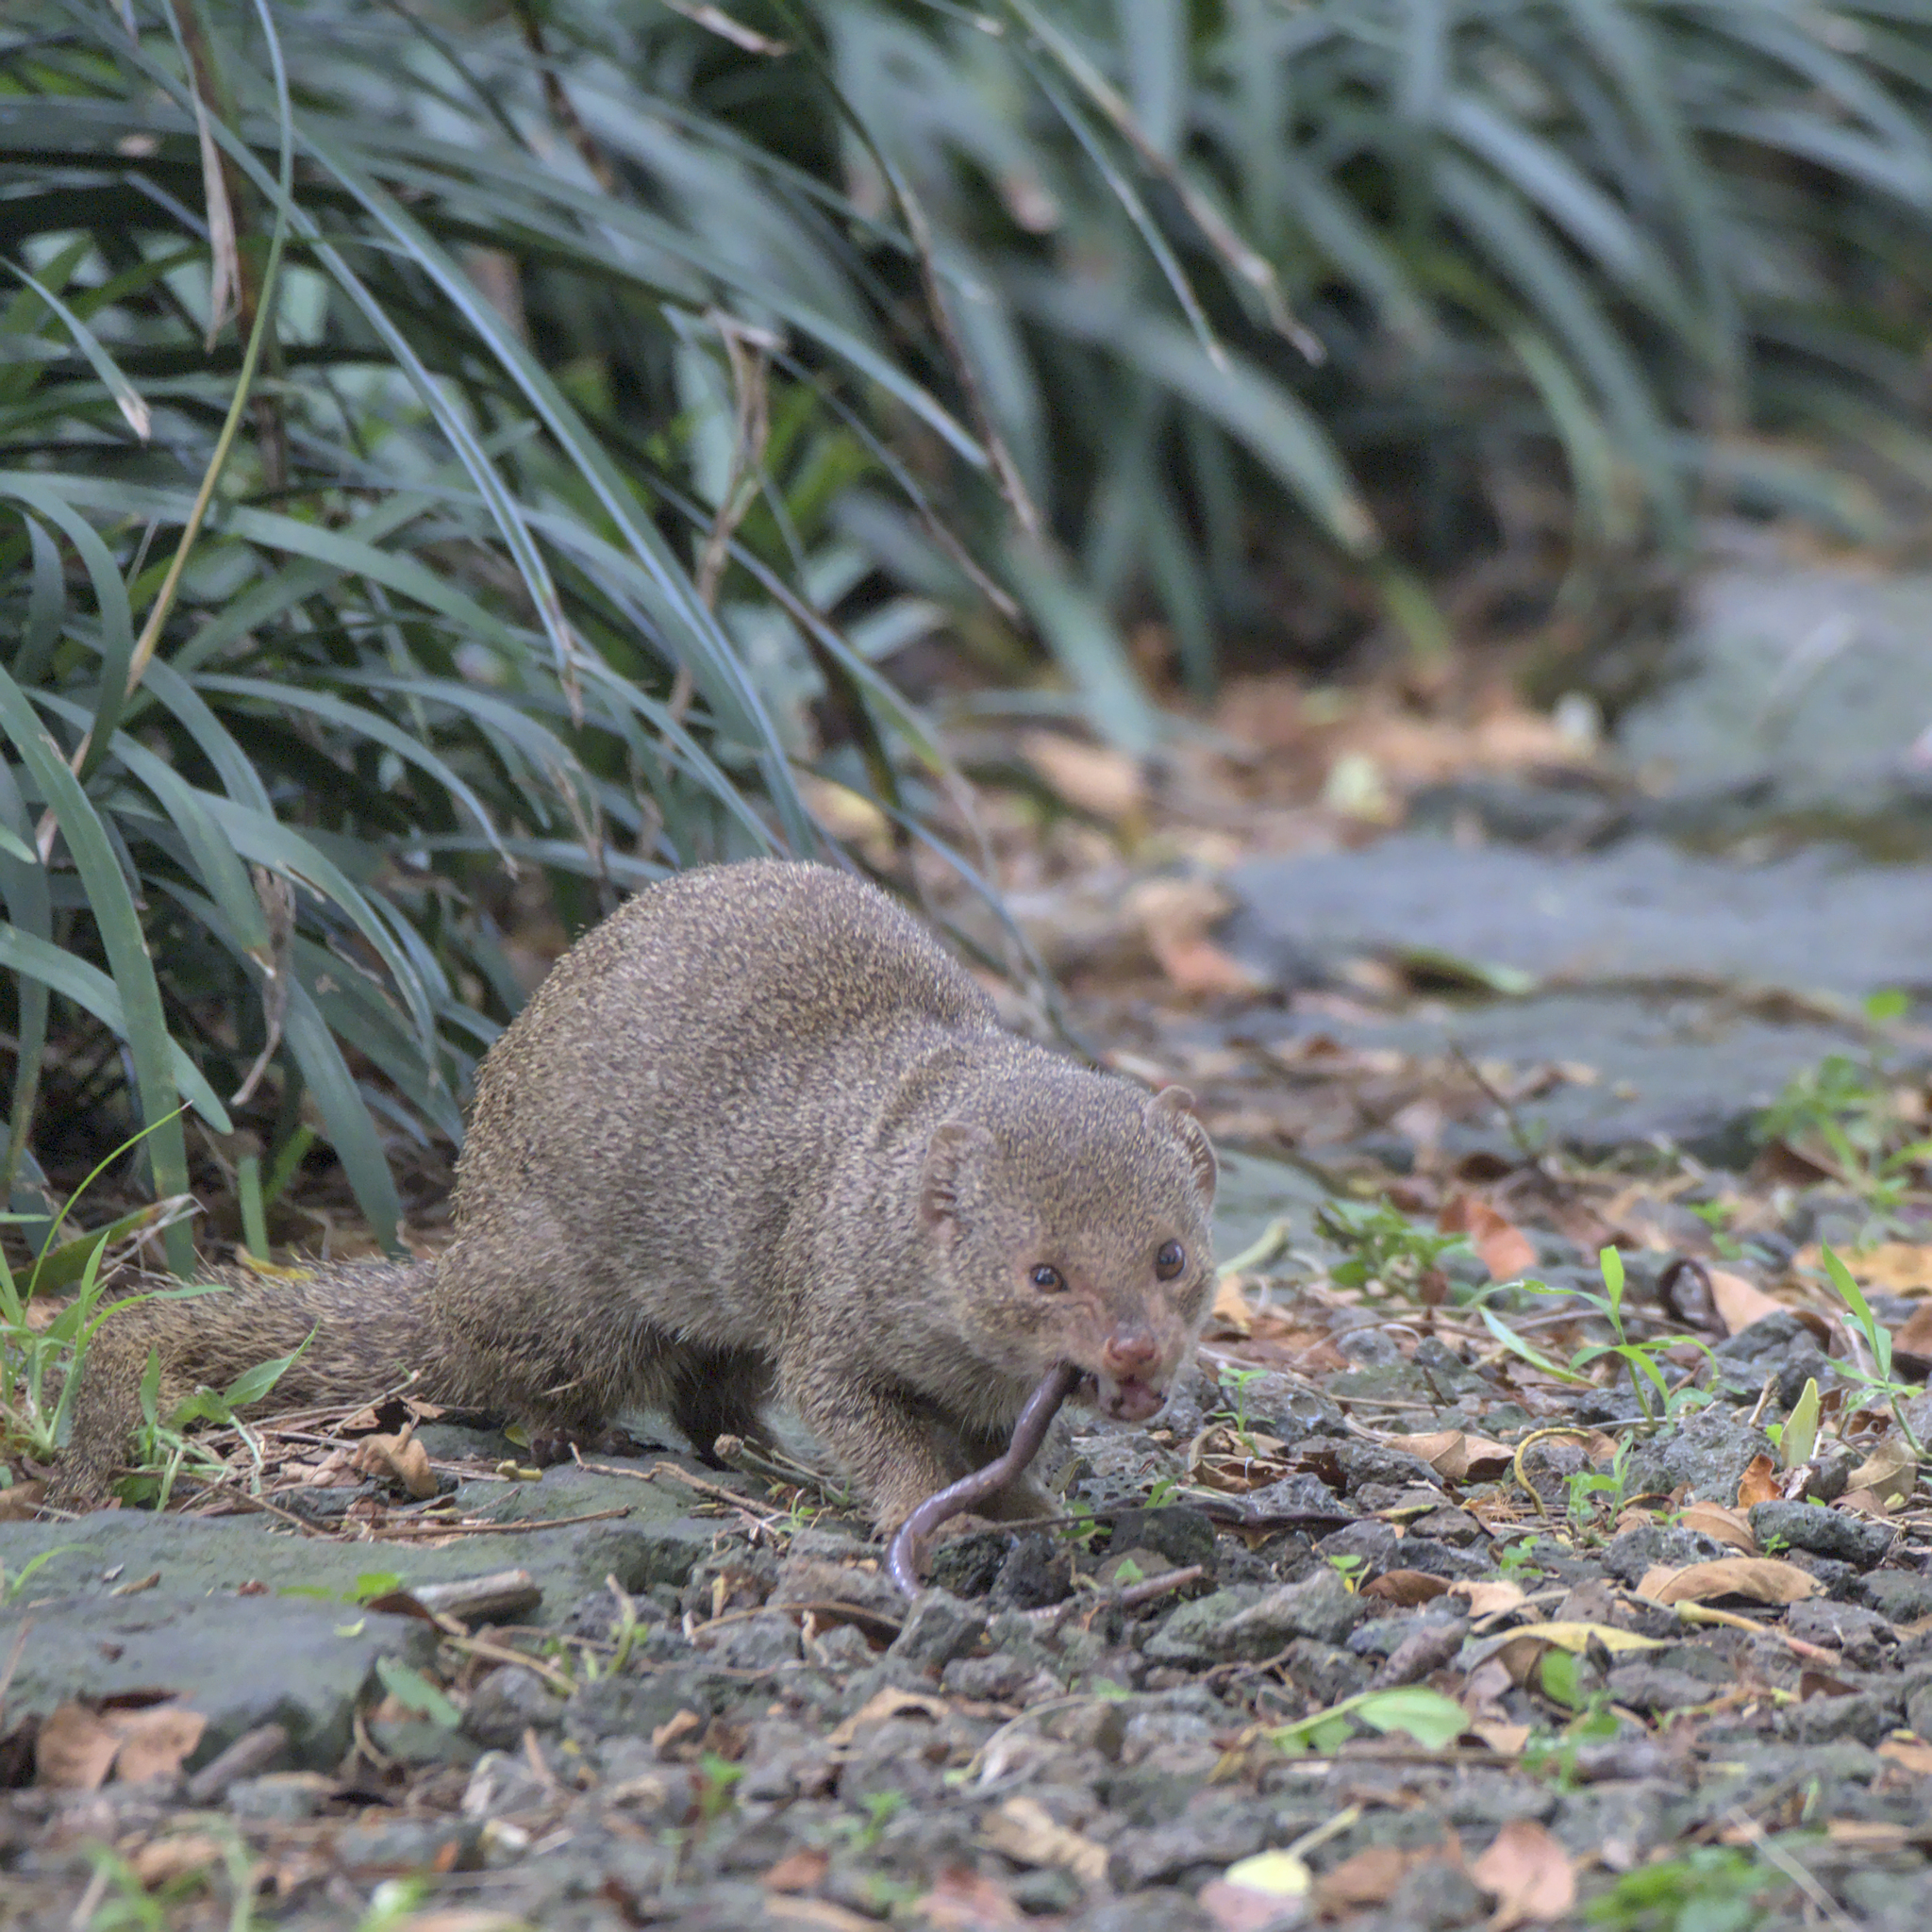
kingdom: Animalia
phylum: Chordata
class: Mammalia
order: Carnivora
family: Herpestidae
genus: Herpestes
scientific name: Herpestes javanicus
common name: Small asian mongoose
